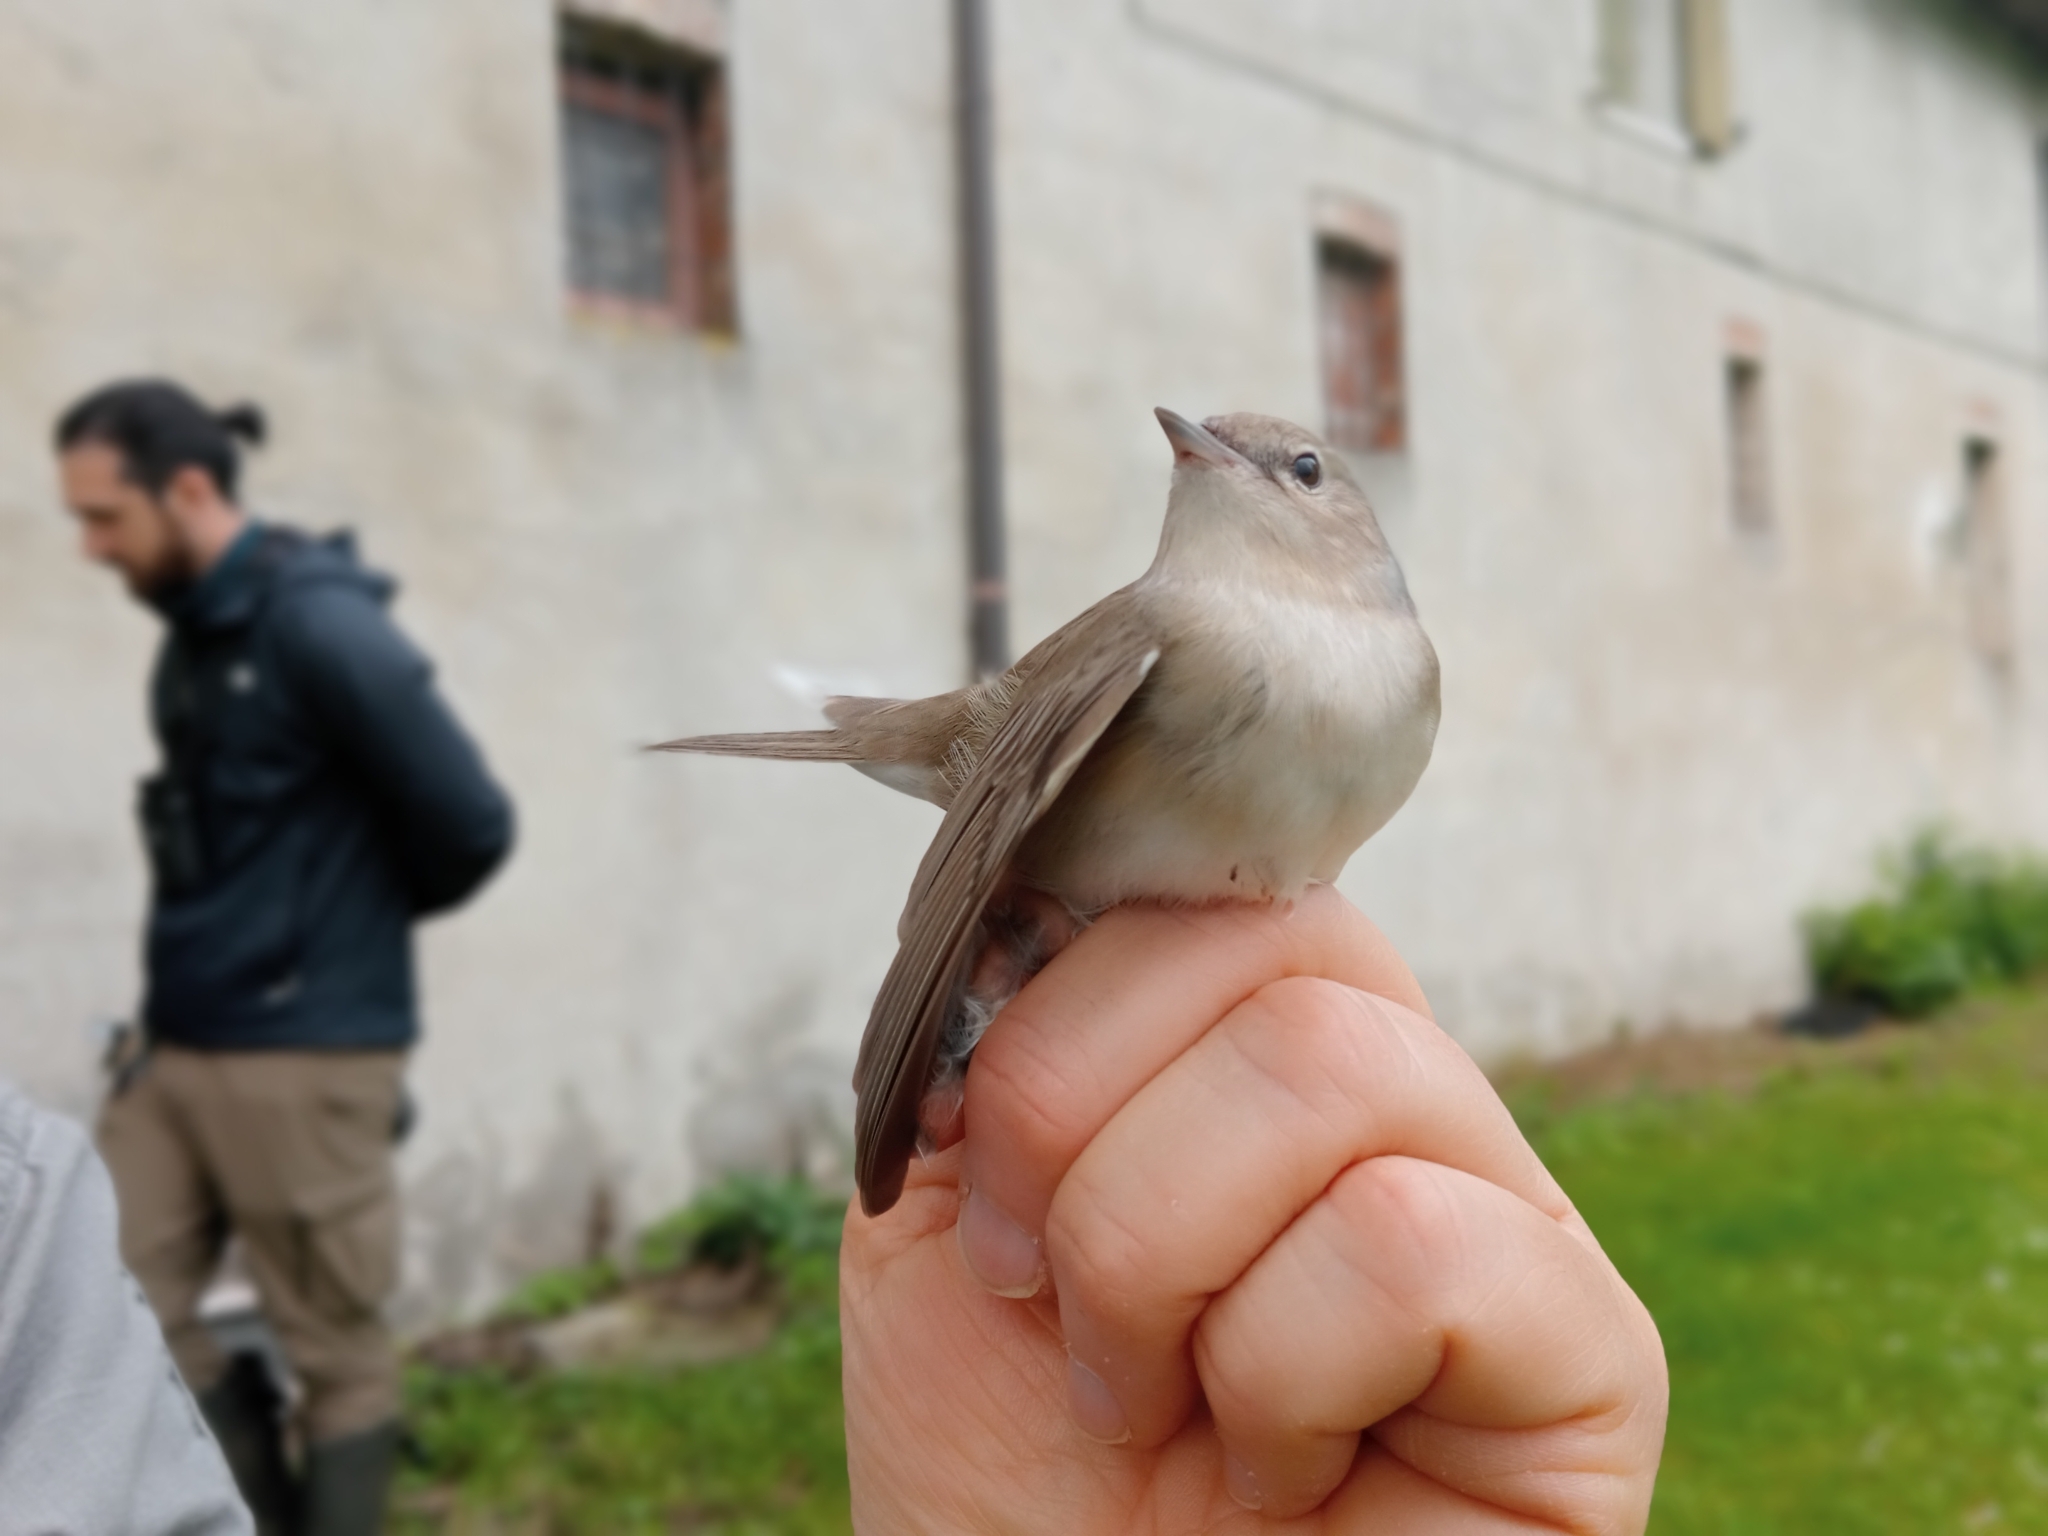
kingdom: Animalia
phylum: Chordata
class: Aves
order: Passeriformes
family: Sylviidae
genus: Sylvia
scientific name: Sylvia borin
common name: Garden warbler
